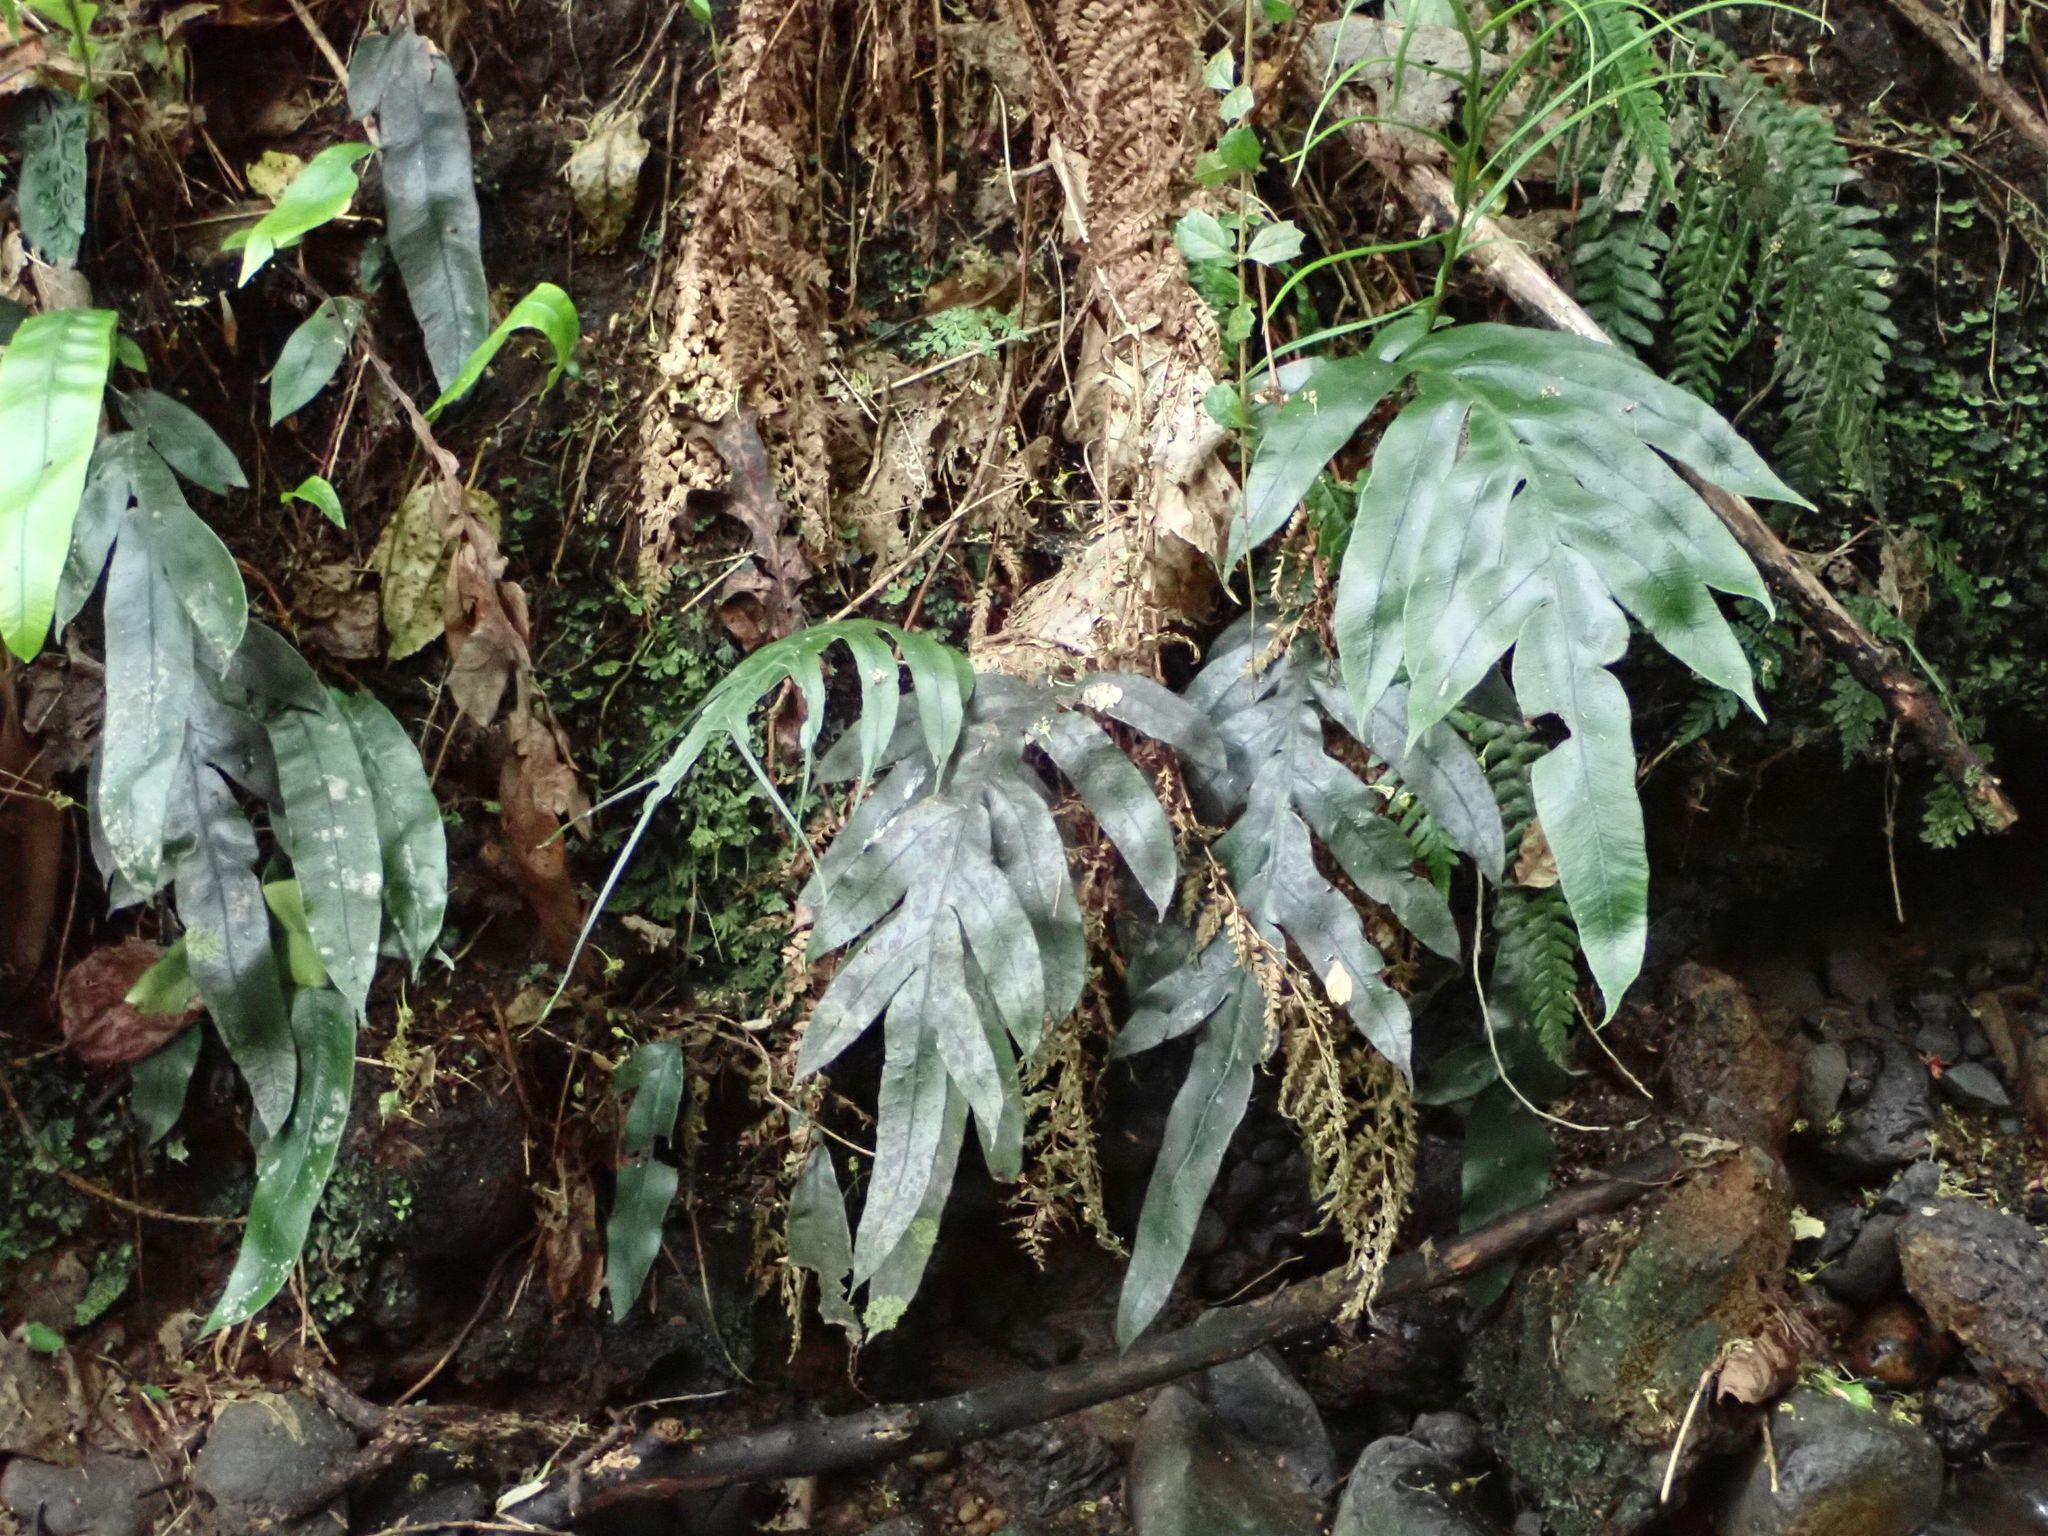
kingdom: Plantae
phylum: Tracheophyta
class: Polypodiopsida
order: Polypodiales
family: Blechnaceae
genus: Austroblechnum
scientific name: Austroblechnum colensoi
